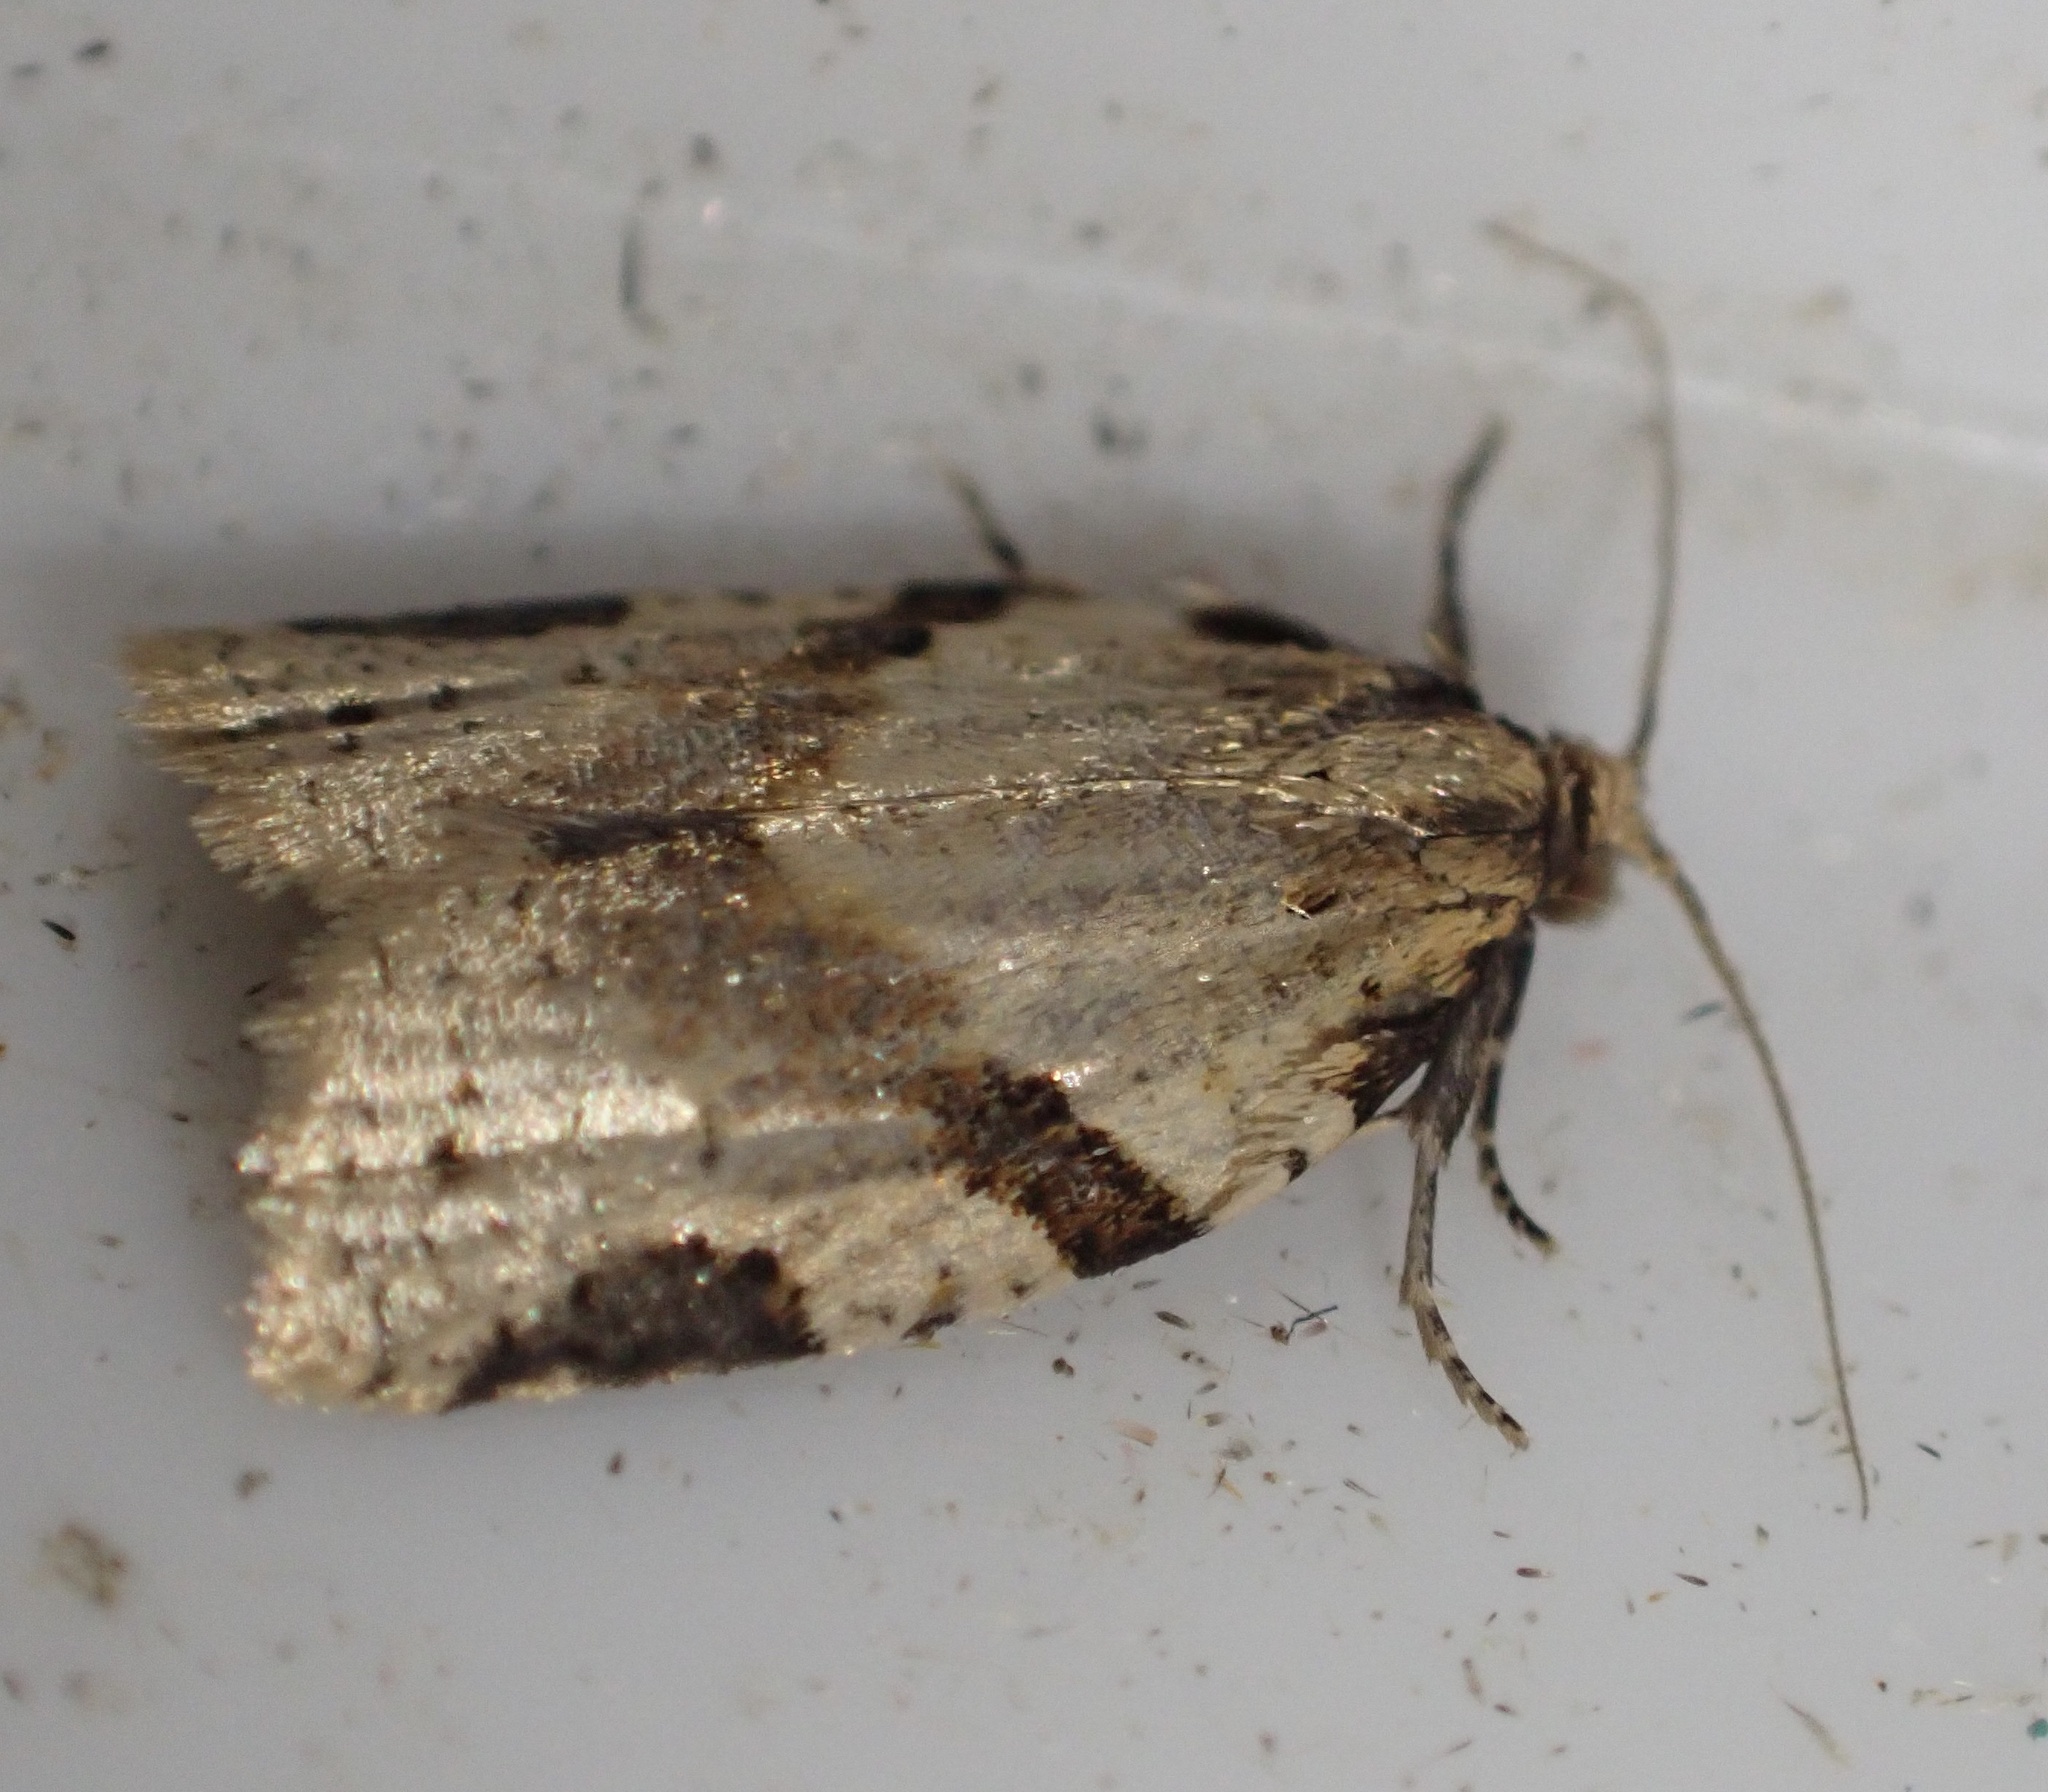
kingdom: Animalia
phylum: Arthropoda
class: Insecta
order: Lepidoptera
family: Tortricidae
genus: Clepsis
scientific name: Clepsis spectrana
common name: Cyclamen tortrix
